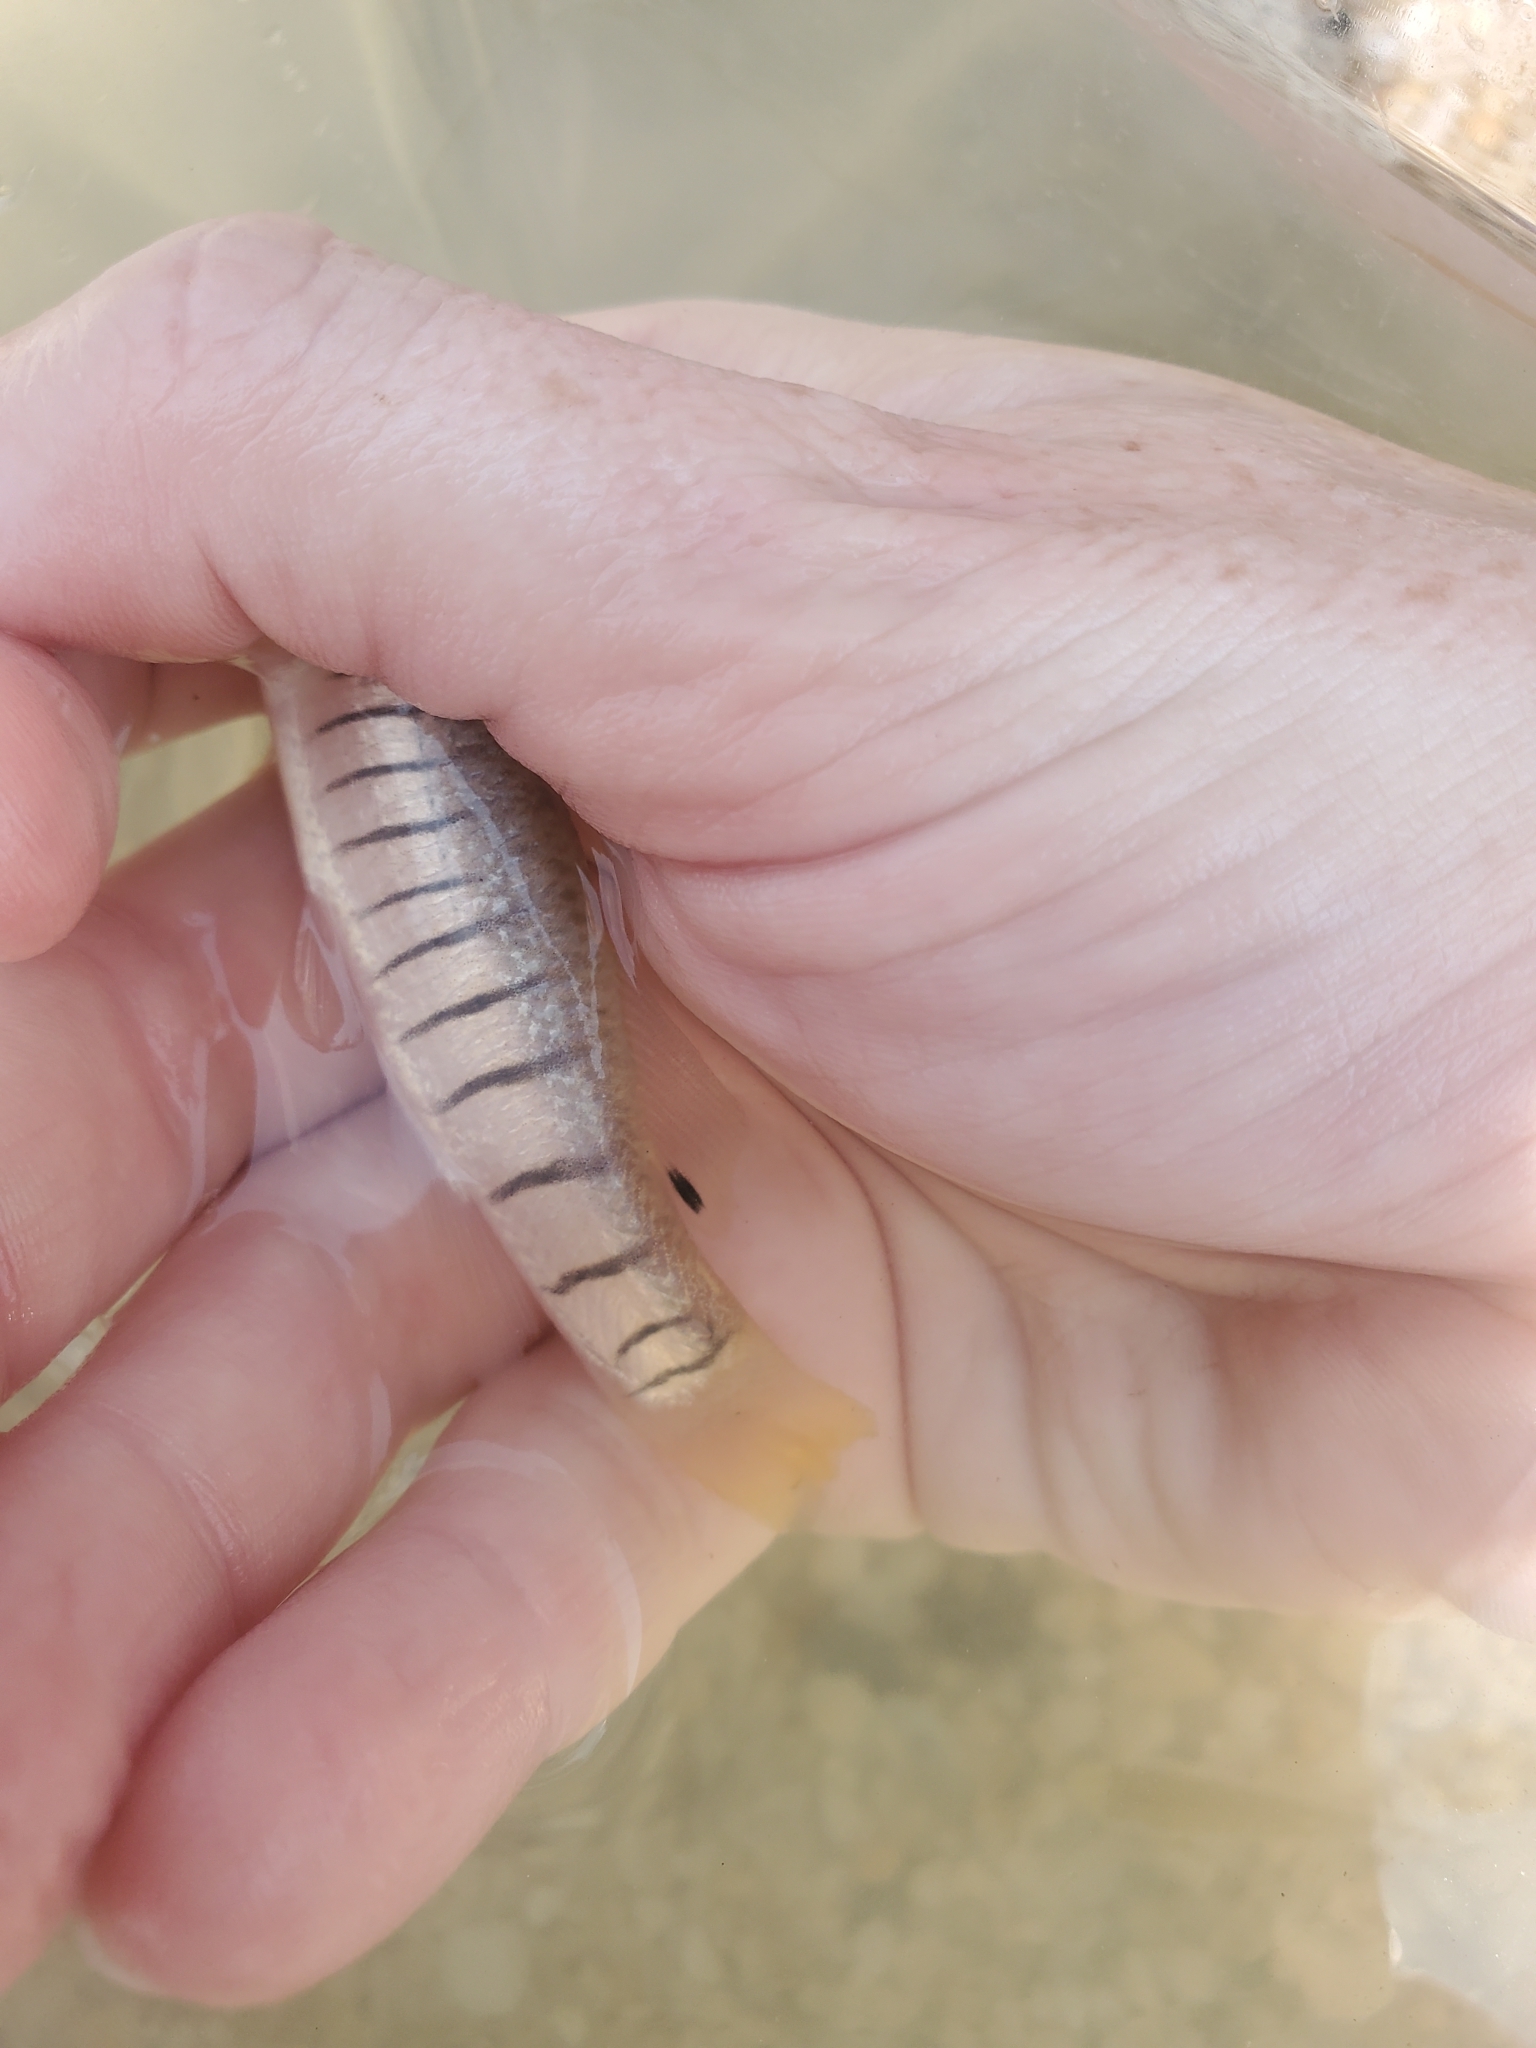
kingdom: Animalia
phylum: Chordata
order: Cyprinodontiformes
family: Fundulidae
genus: Fundulus
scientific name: Fundulus majalis
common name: Striped killifish
